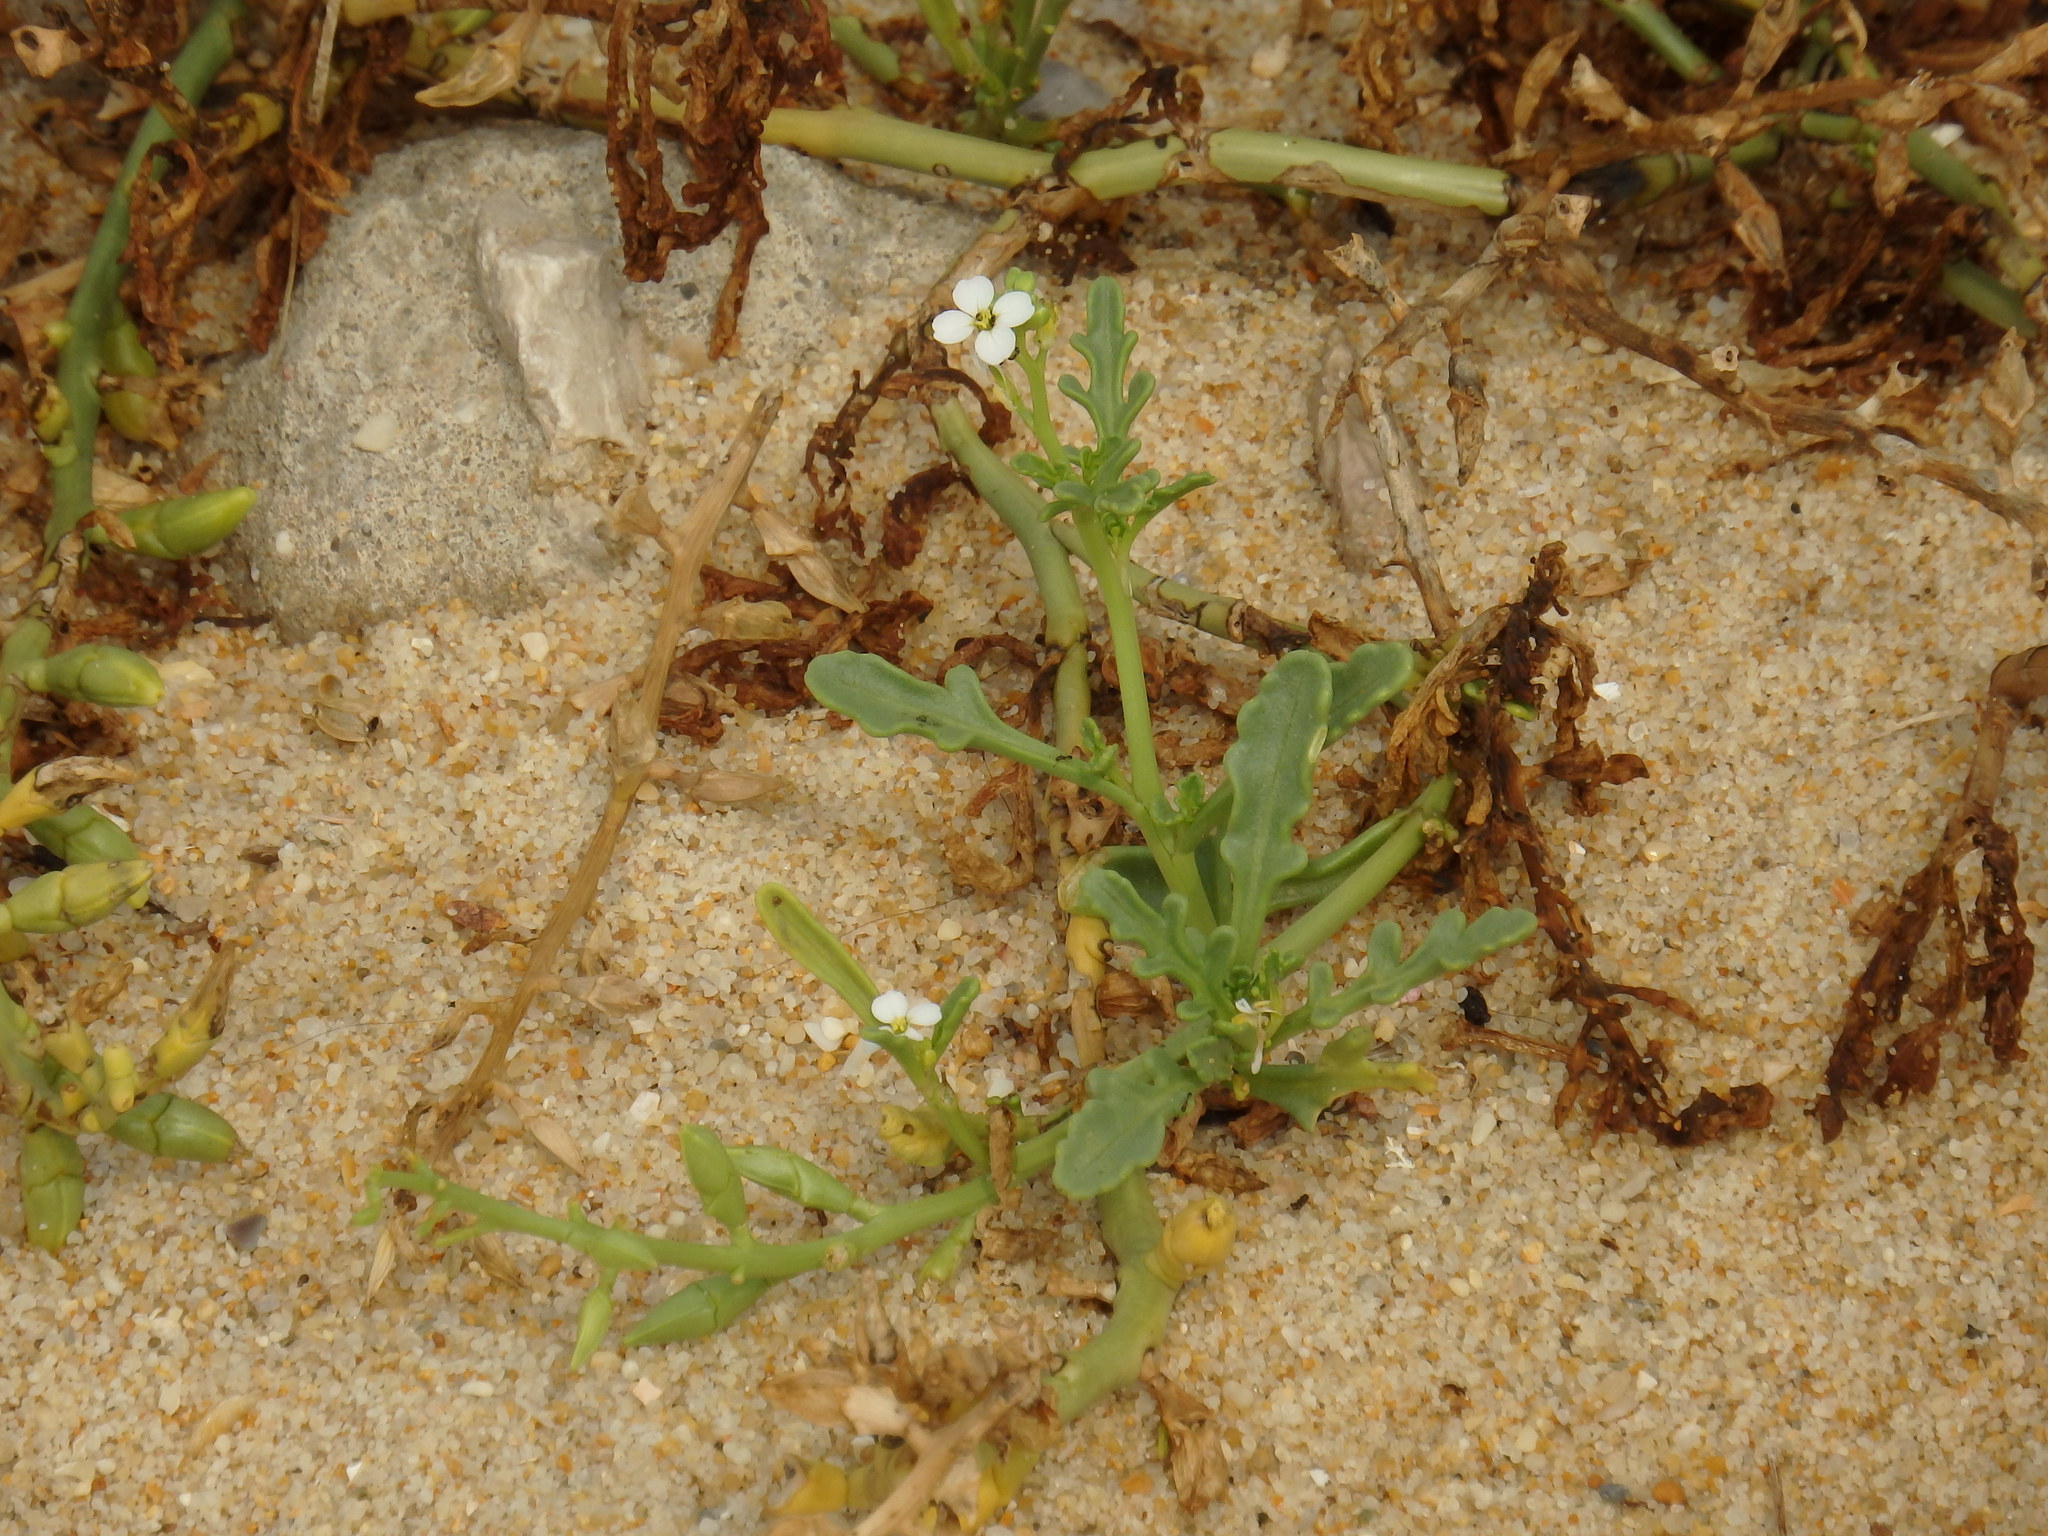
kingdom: Plantae
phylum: Tracheophyta
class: Magnoliopsida
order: Brassicales
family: Brassicaceae
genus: Cakile
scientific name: Cakile maritima
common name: Sea rocket
